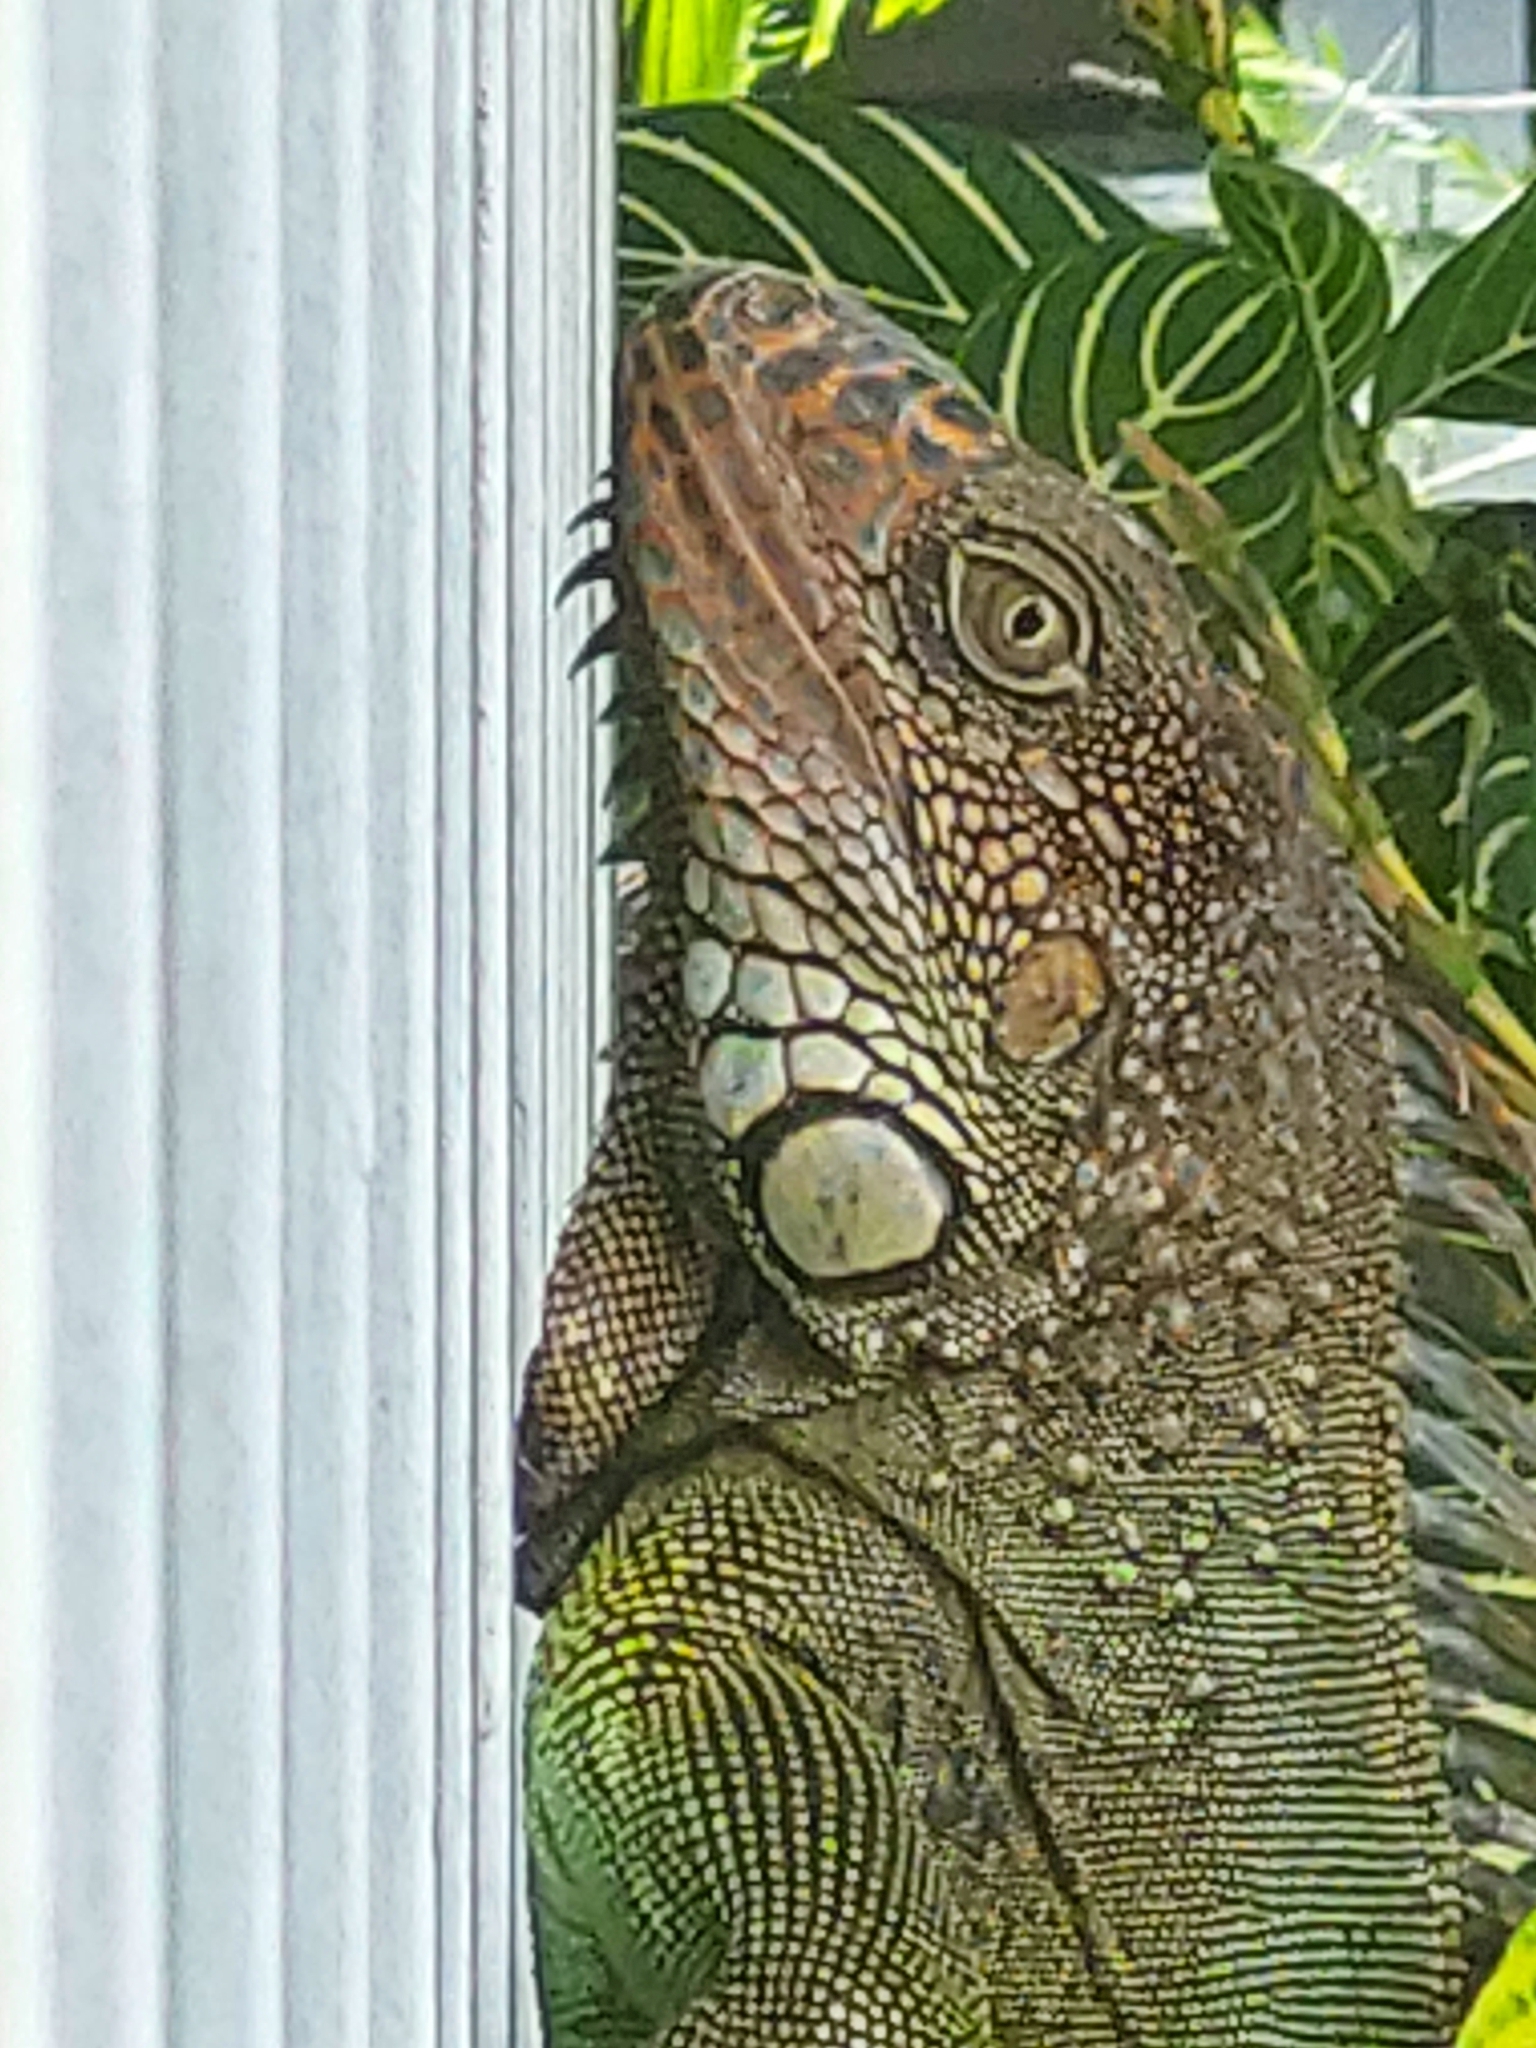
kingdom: Animalia
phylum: Chordata
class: Squamata
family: Iguanidae
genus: Iguana
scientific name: Iguana iguana
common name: Green iguana
